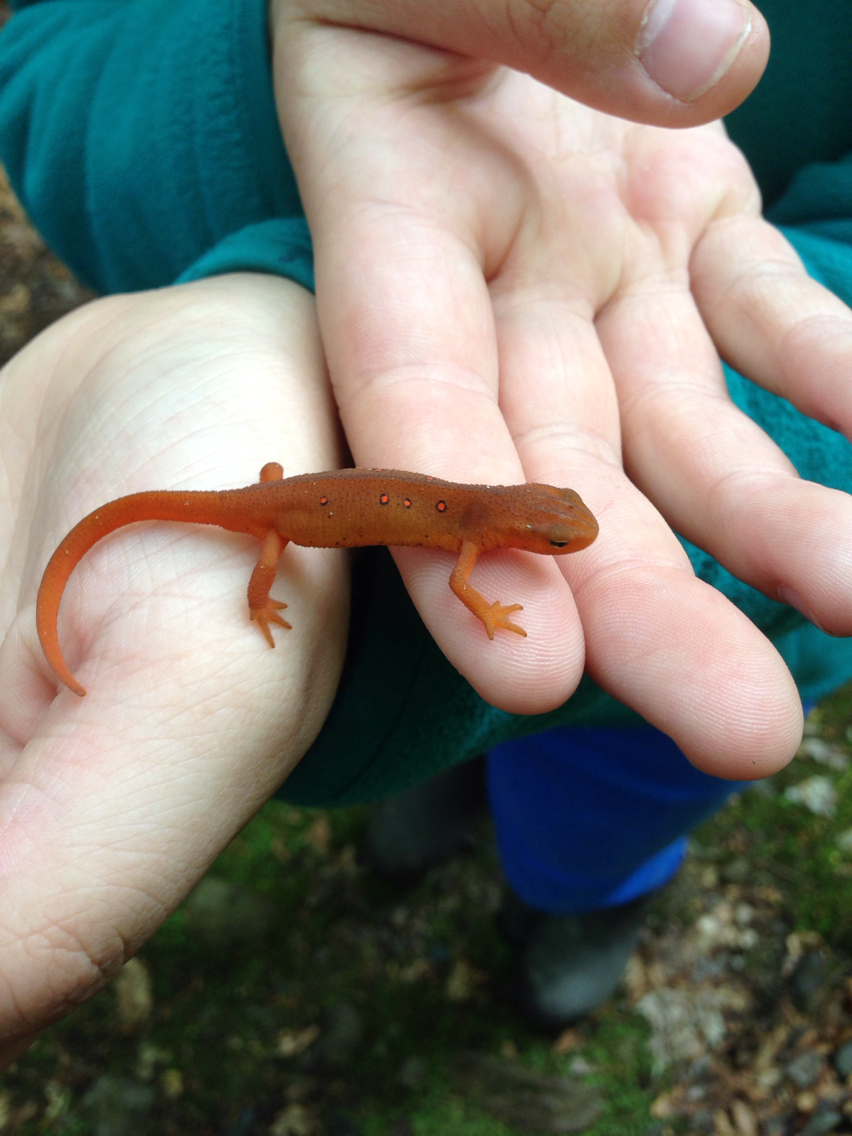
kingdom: Animalia
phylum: Chordata
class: Amphibia
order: Caudata
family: Salamandridae
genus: Notophthalmus
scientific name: Notophthalmus viridescens
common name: Eastern newt
